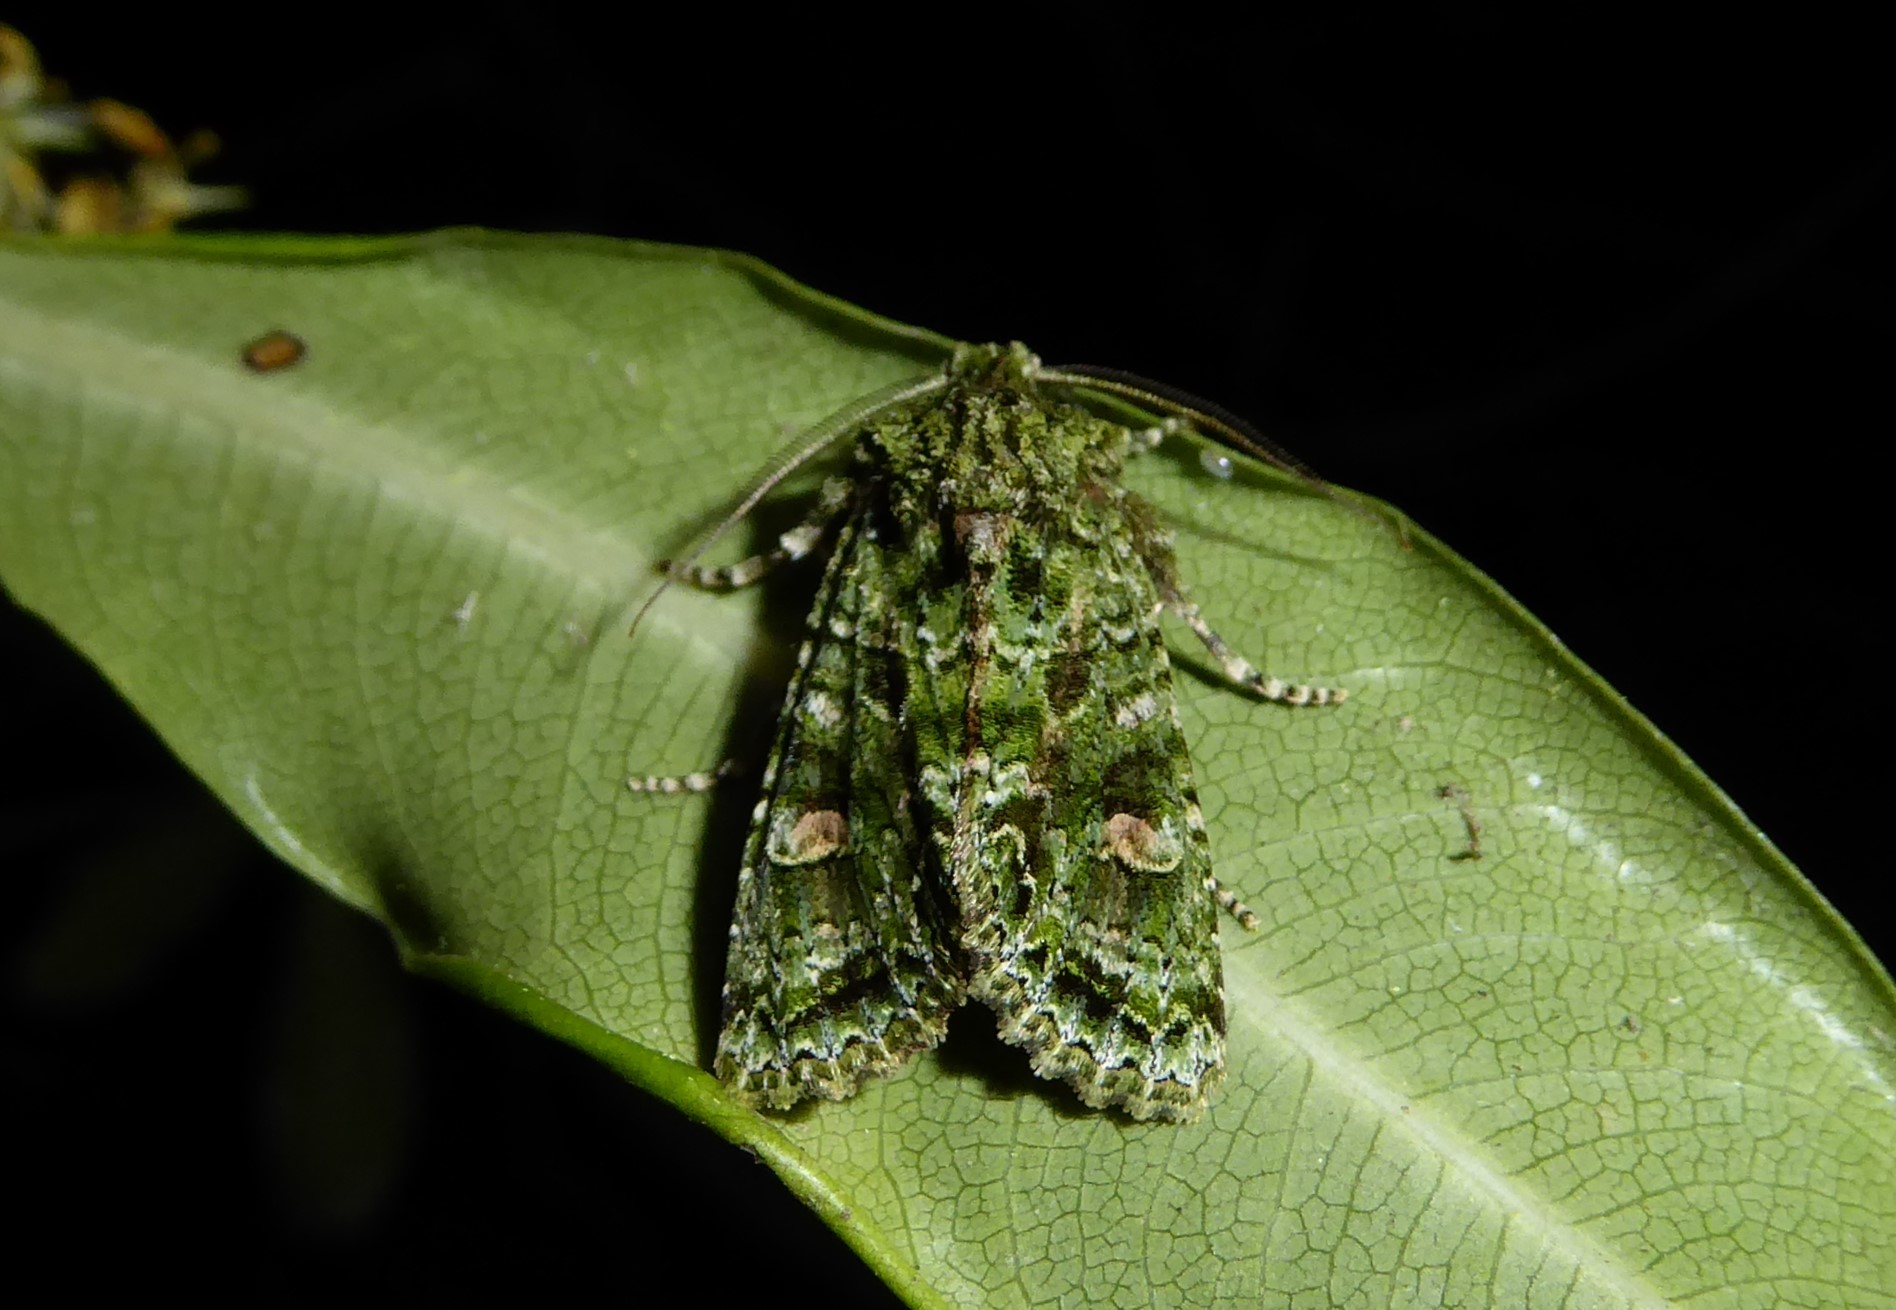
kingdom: Animalia
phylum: Arthropoda
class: Insecta
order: Lepidoptera
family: Noctuidae
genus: Ichneutica
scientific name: Ichneutica
